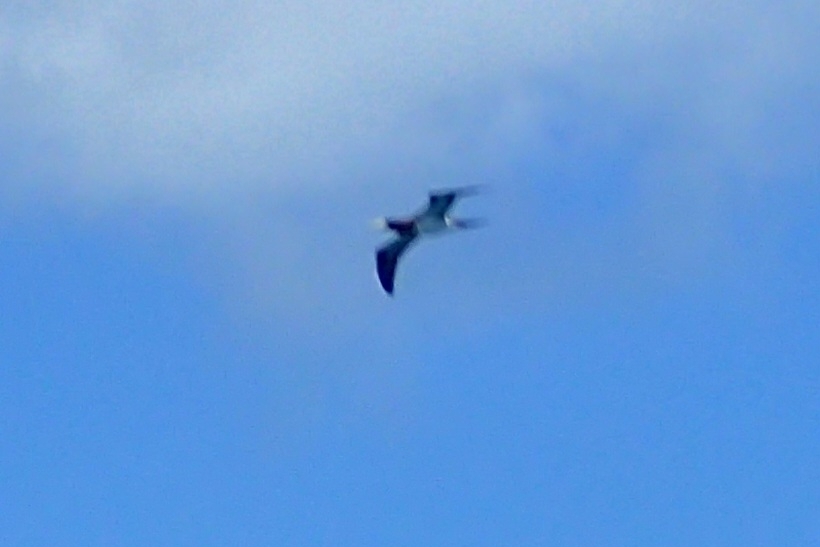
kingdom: Animalia
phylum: Chordata
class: Aves
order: Suliformes
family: Sulidae
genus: Sula
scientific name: Sula leucogaster
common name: Brown booby
